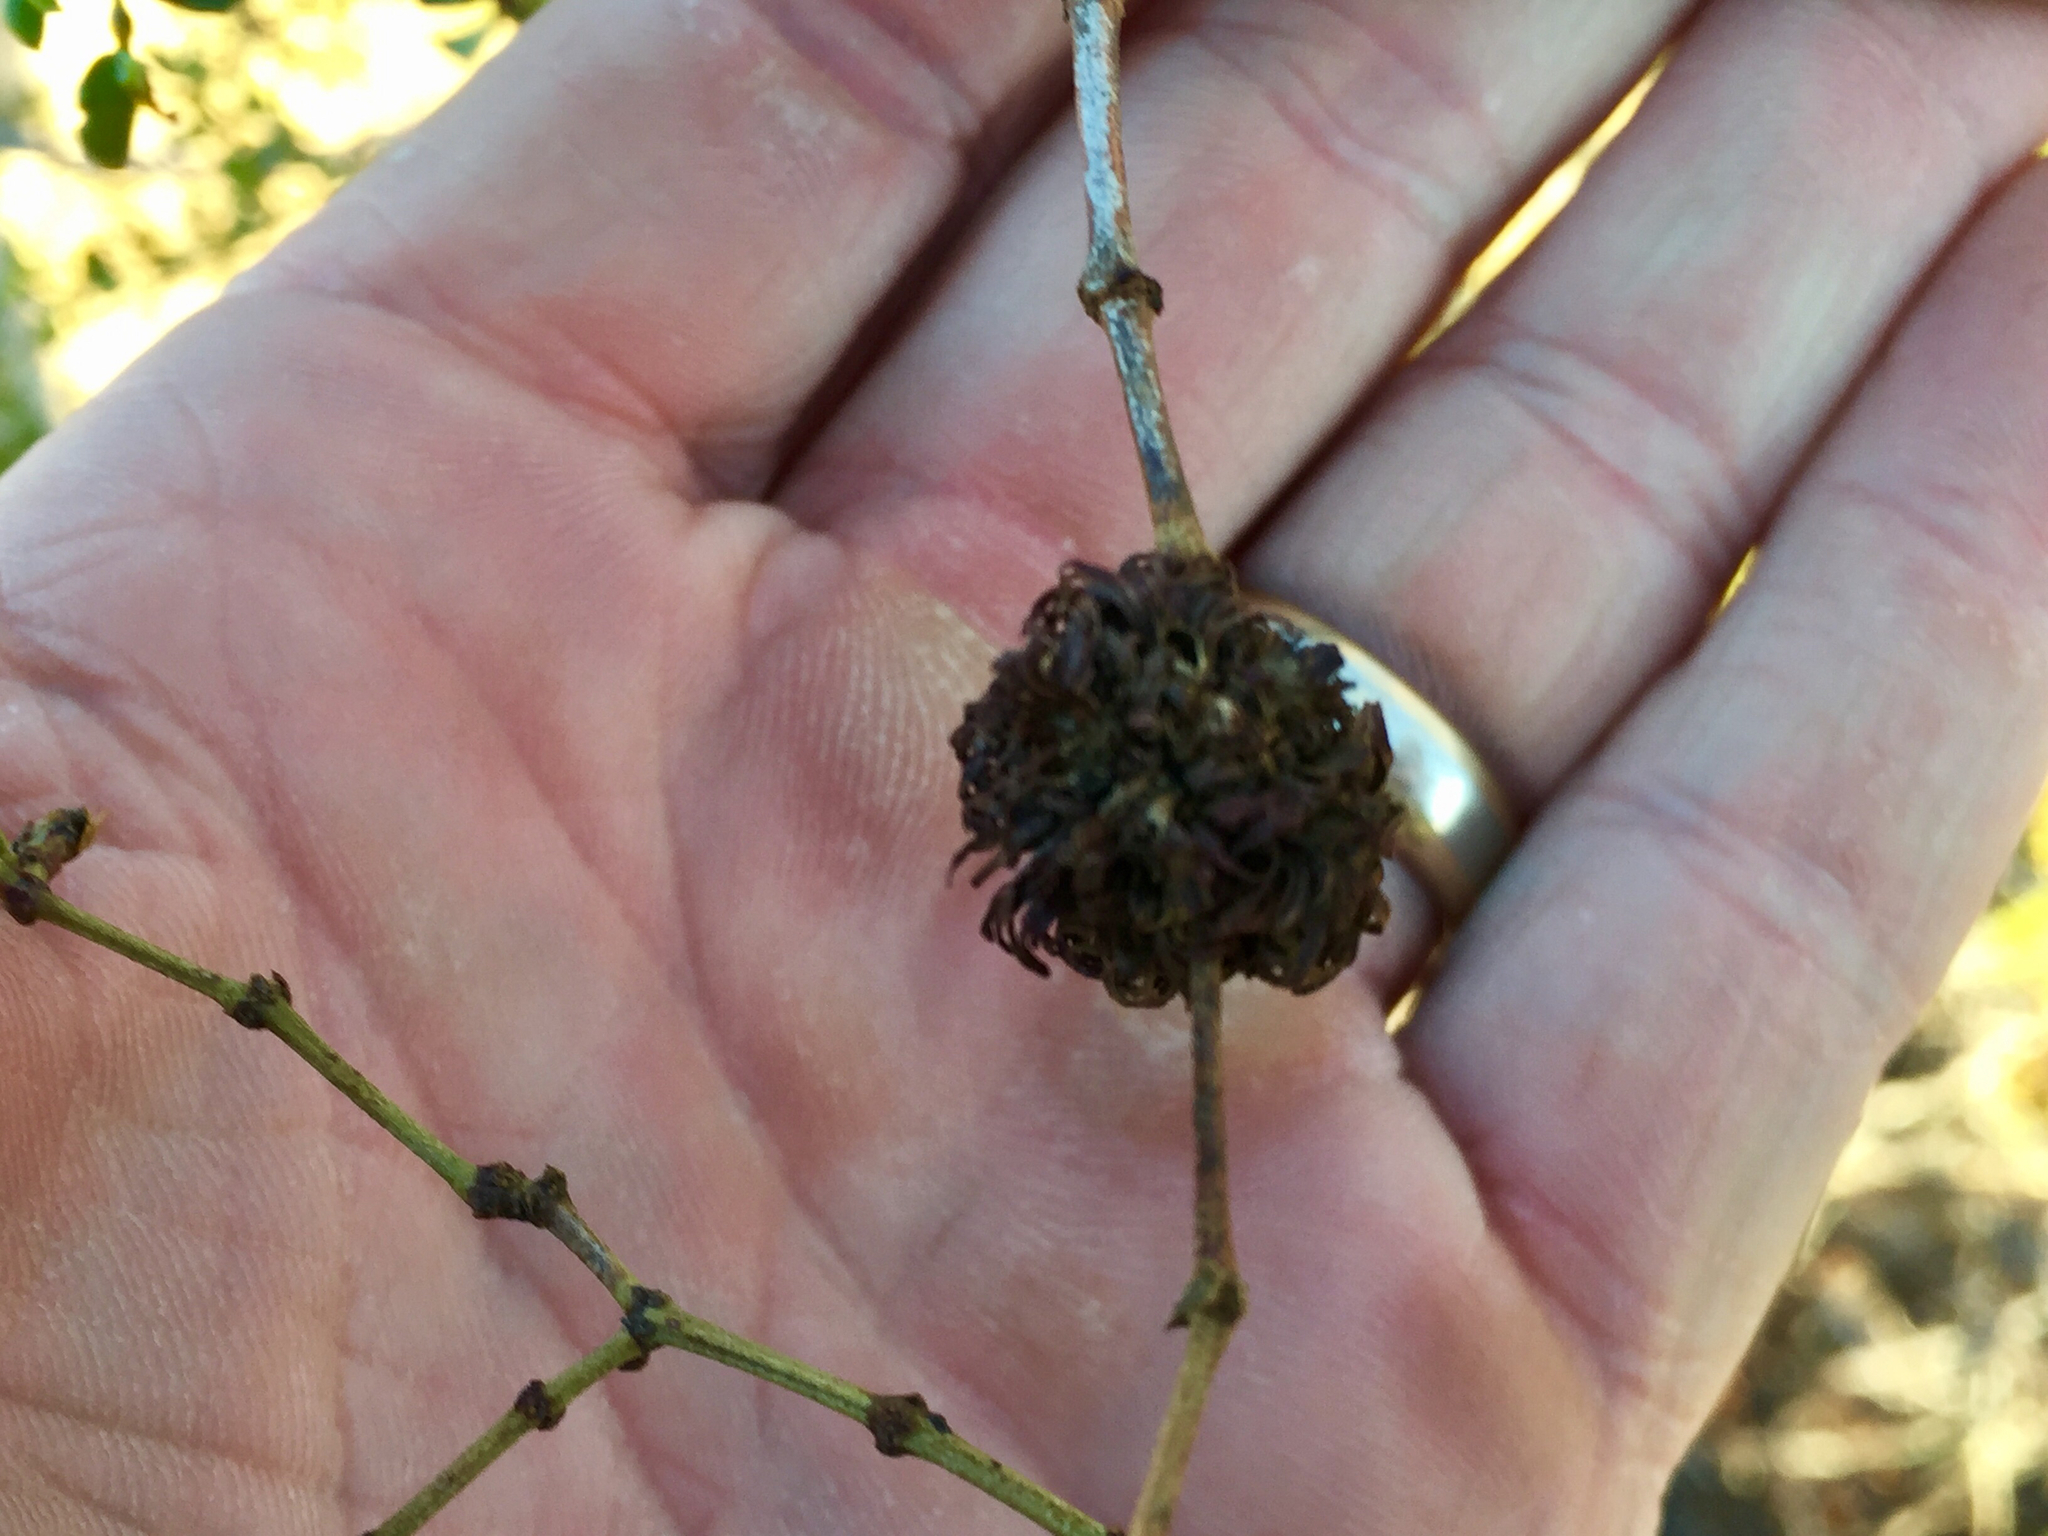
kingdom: Animalia
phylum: Arthropoda
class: Insecta
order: Diptera
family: Cecidomyiidae
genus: Asphondylia
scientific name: Asphondylia auripila
